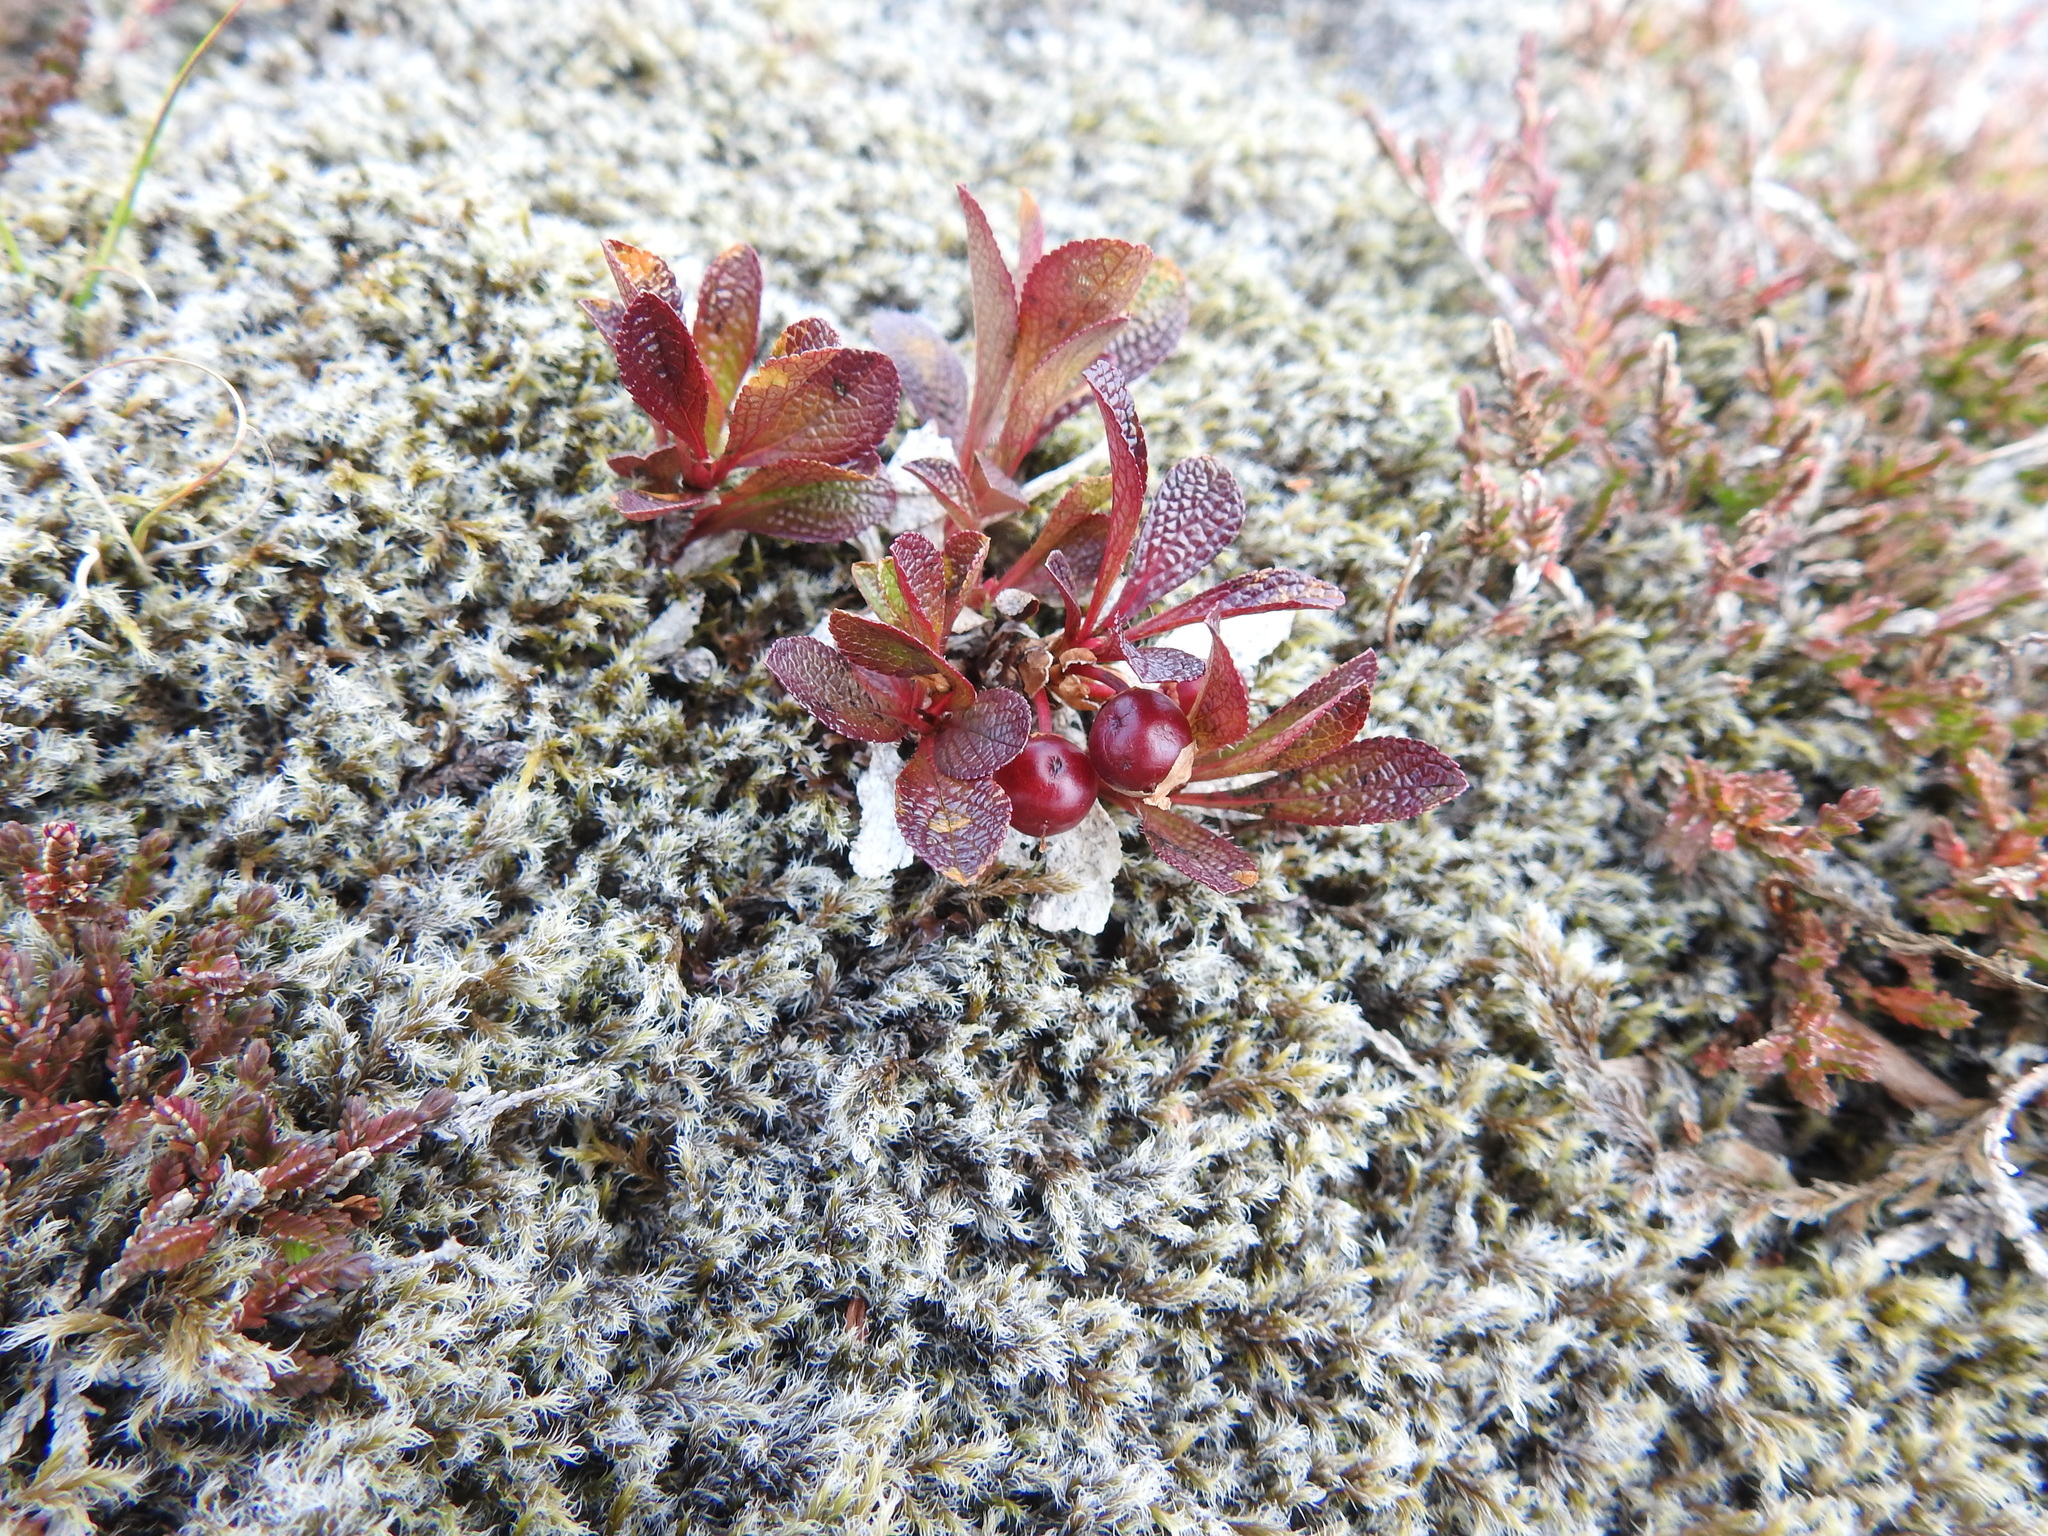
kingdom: Plantae
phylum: Tracheophyta
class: Magnoliopsida
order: Ericales
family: Ericaceae
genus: Arctostaphylos
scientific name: Arctostaphylos alpinus
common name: Alpine bearberry
